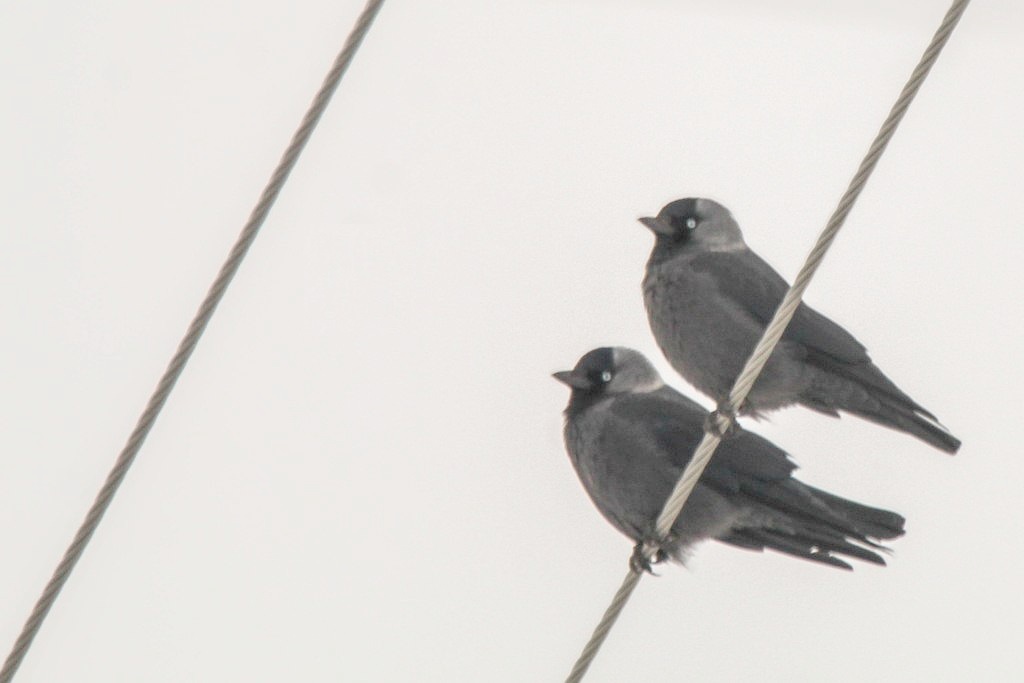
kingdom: Animalia
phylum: Chordata
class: Aves
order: Passeriformes
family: Corvidae
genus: Coloeus
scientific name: Coloeus monedula
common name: Western jackdaw
